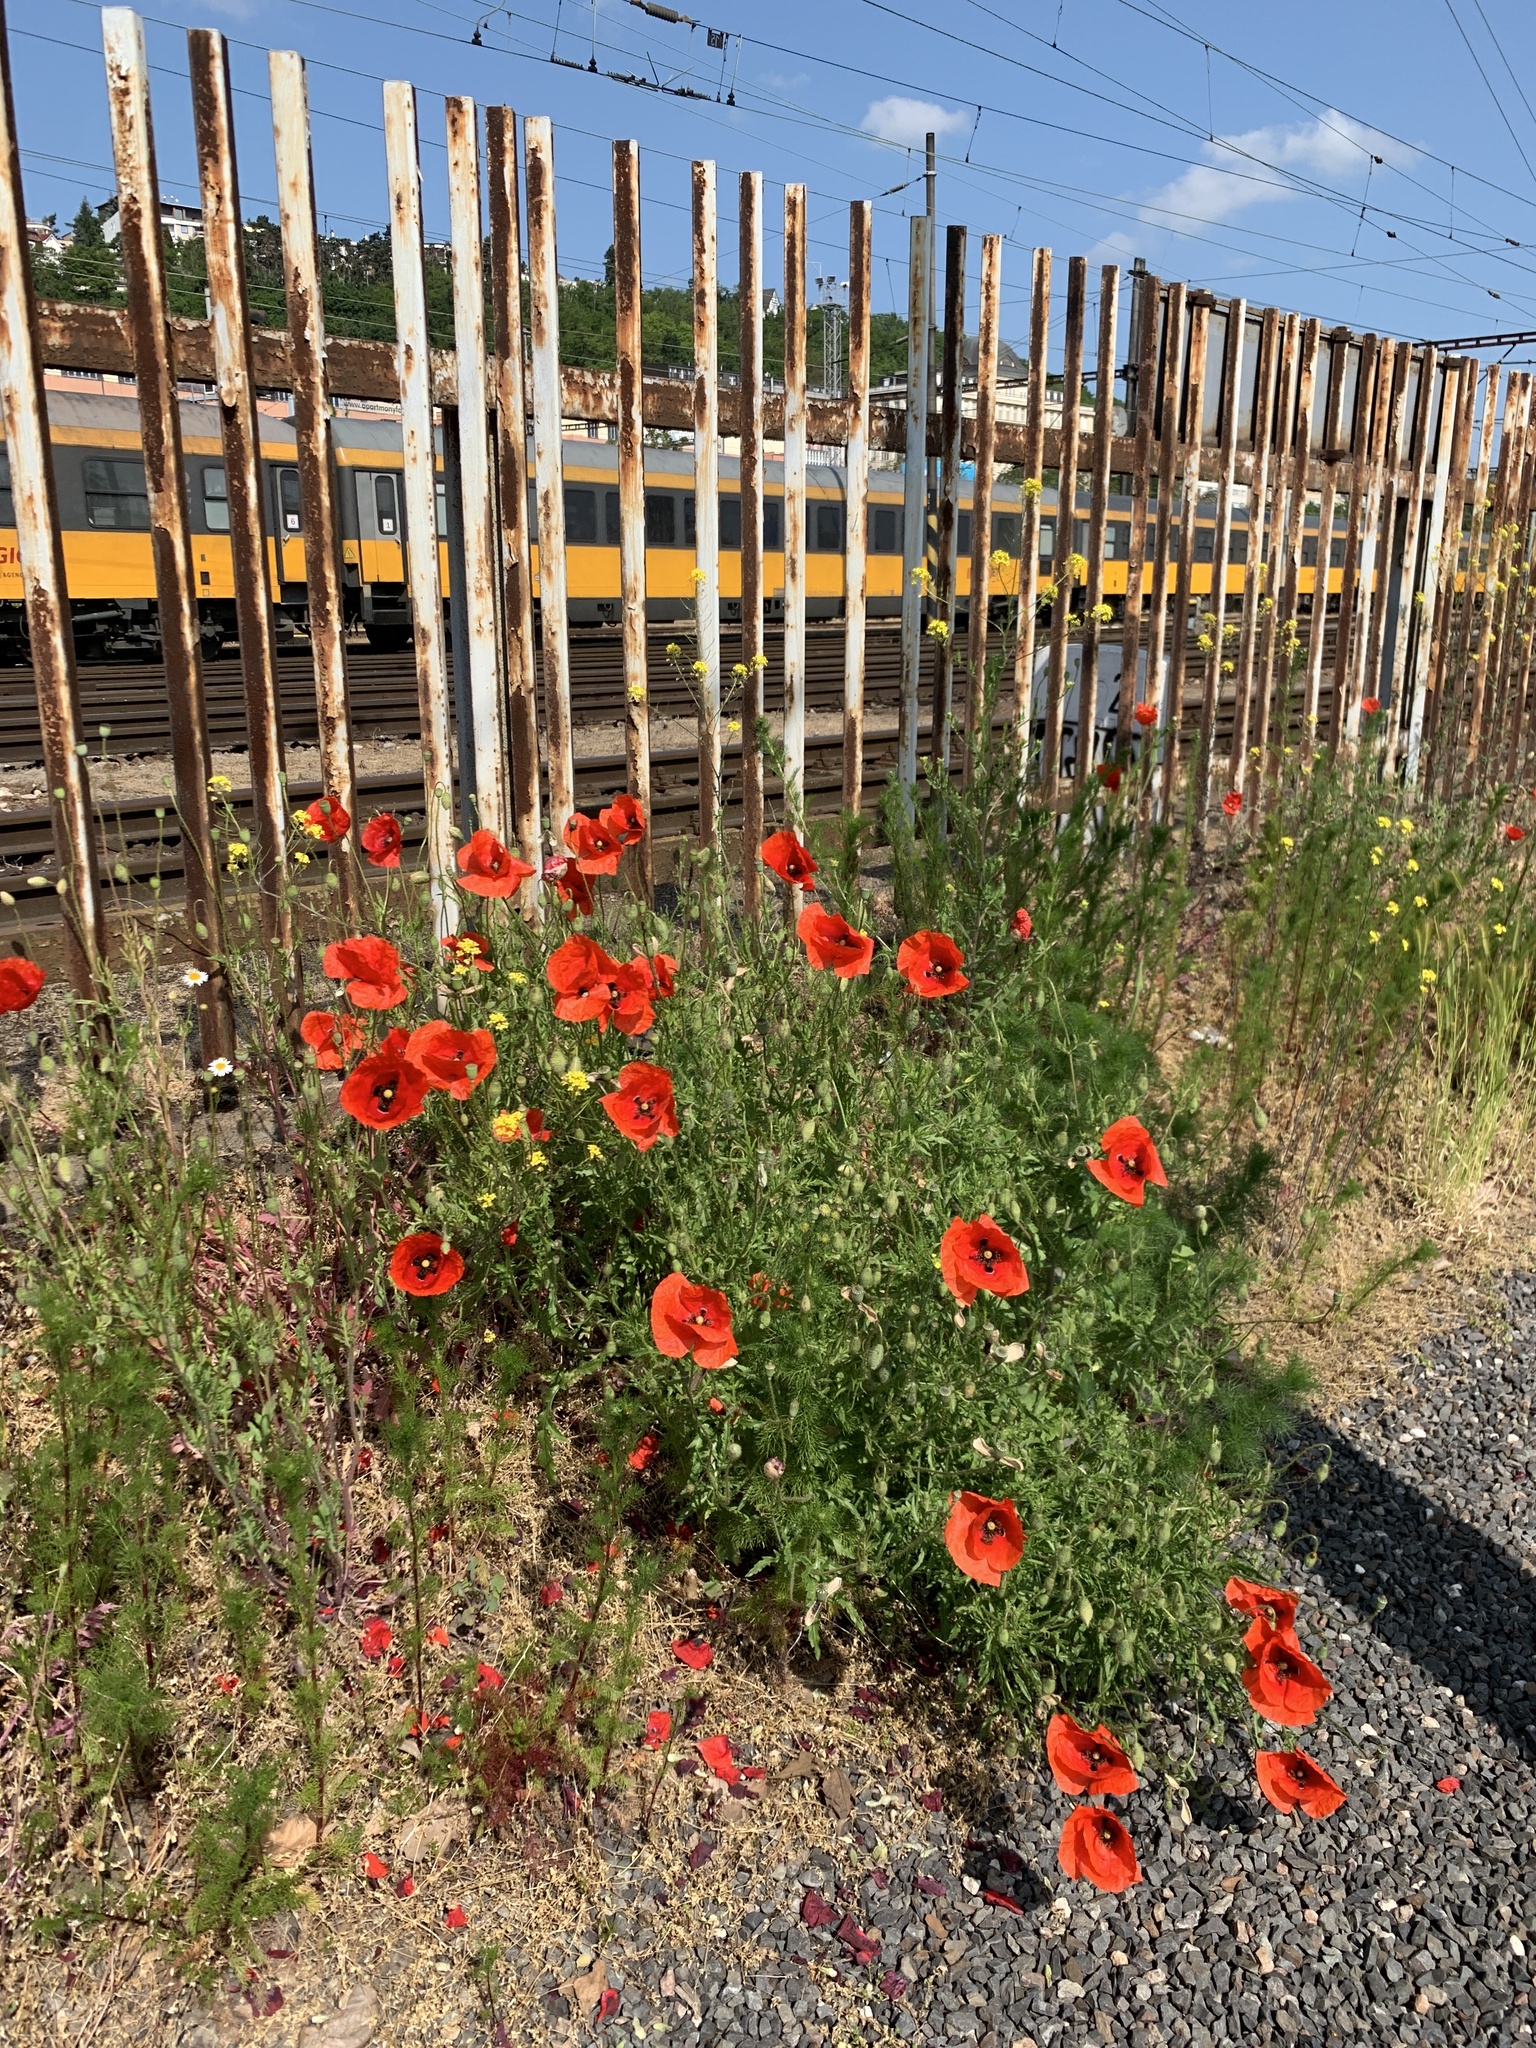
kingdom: Plantae
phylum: Tracheophyta
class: Magnoliopsida
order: Ranunculales
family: Papaveraceae
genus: Papaver
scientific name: Papaver rhoeas
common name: Corn poppy
